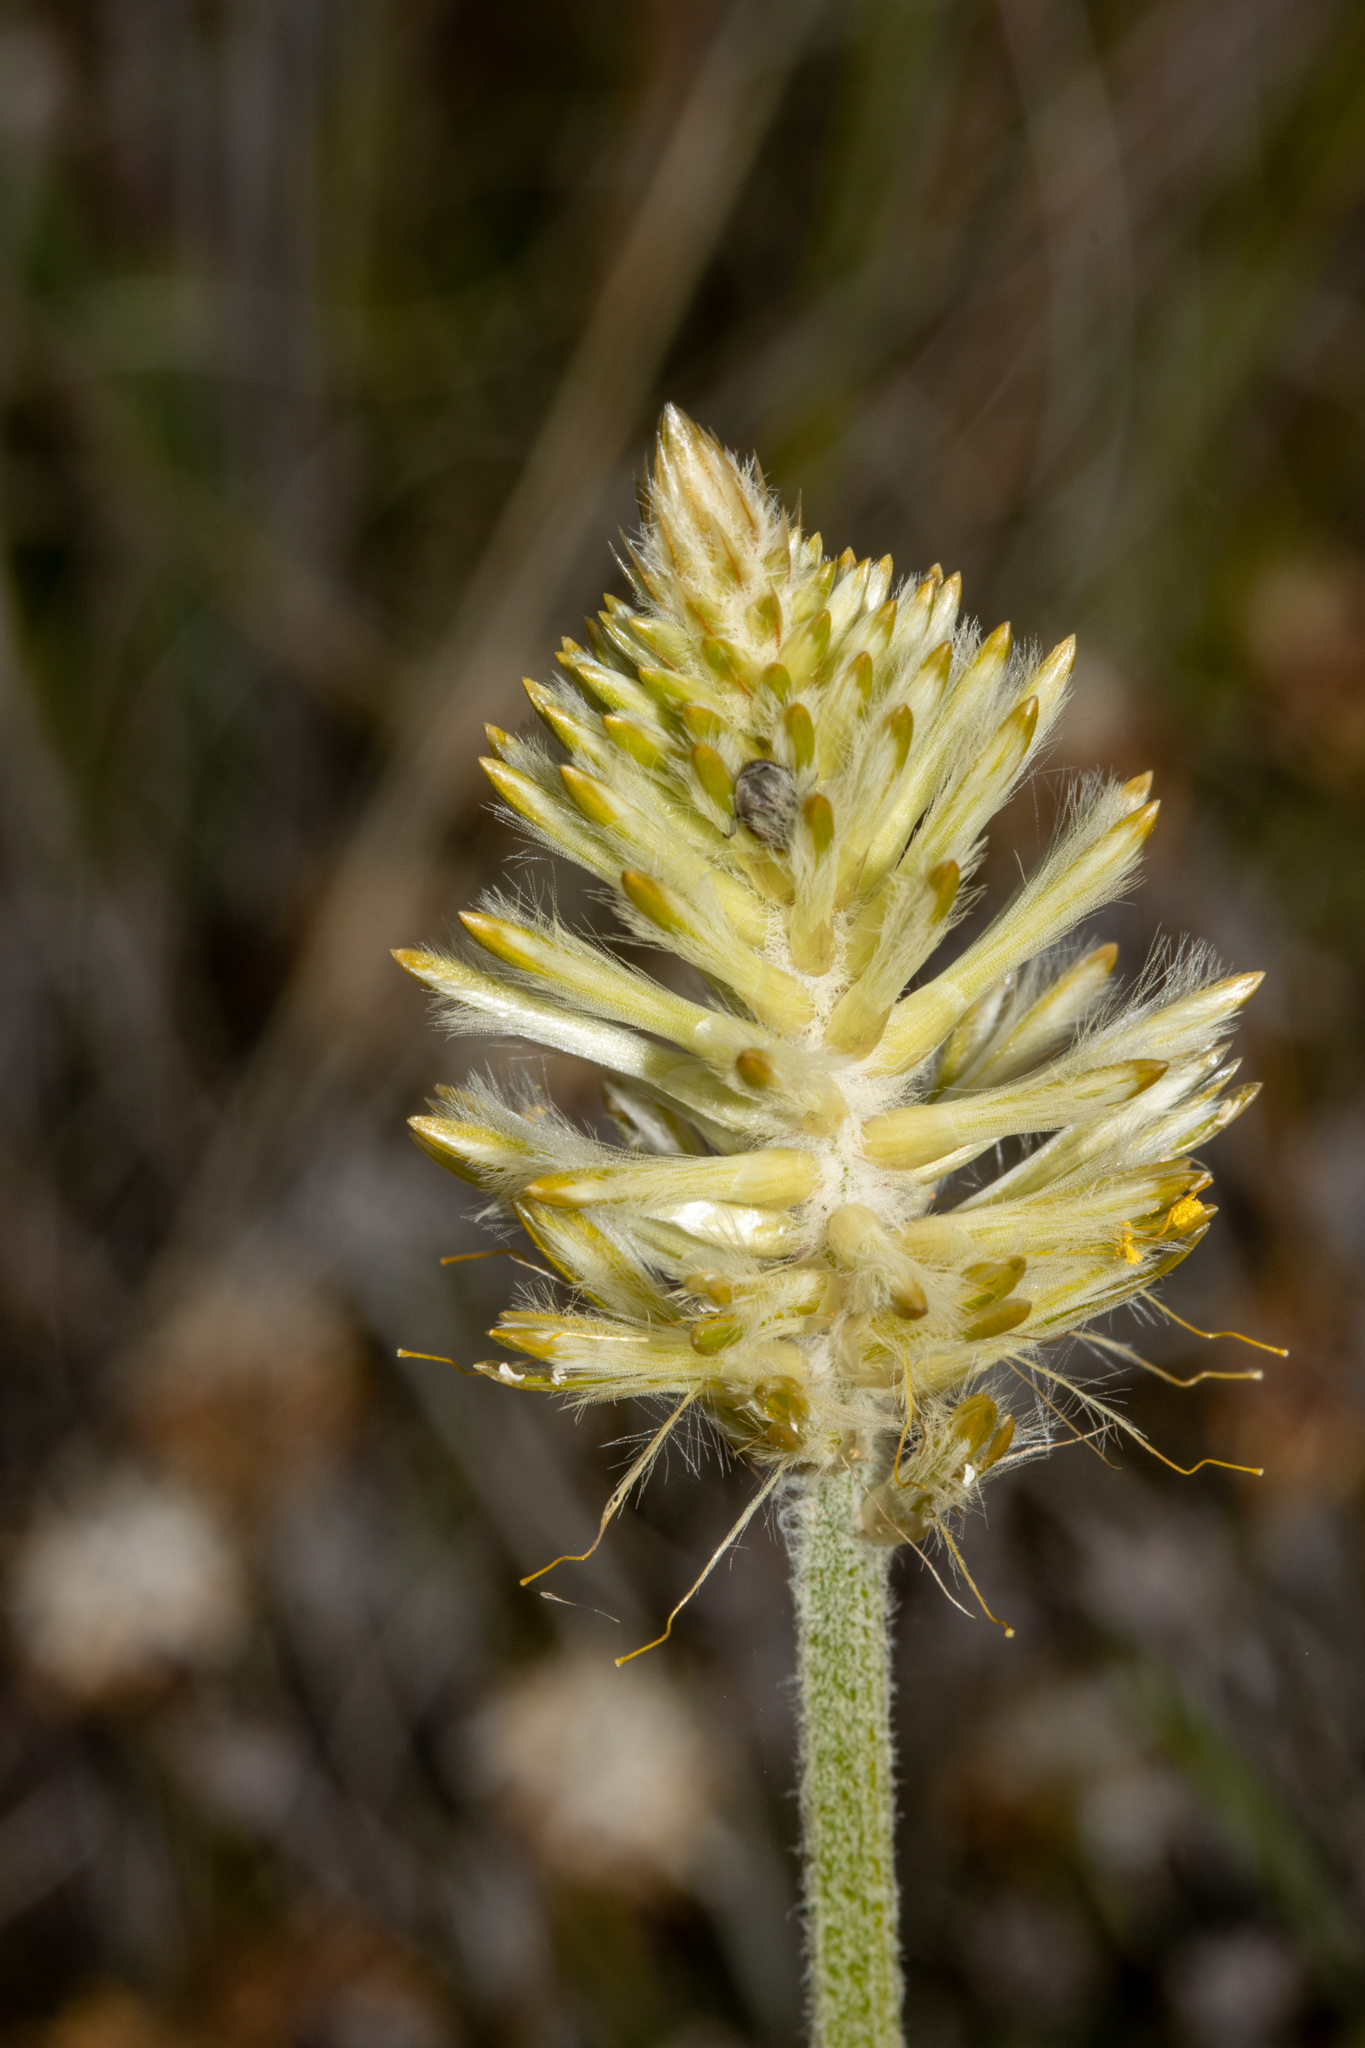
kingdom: Plantae
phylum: Tracheophyta
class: Magnoliopsida
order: Caryophyllales
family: Amaranthaceae
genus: Ptilotus
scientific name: Ptilotus polystachyus
